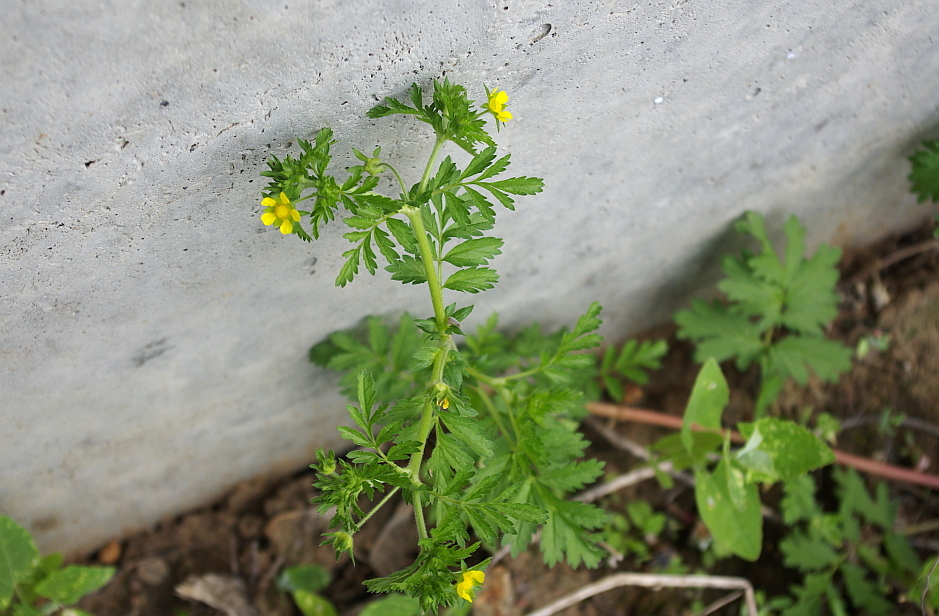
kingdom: Plantae
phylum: Tracheophyta
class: Magnoliopsida
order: Rosales
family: Rosaceae
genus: Potentilla
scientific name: Potentilla supina
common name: Prostrate cinquefoil
